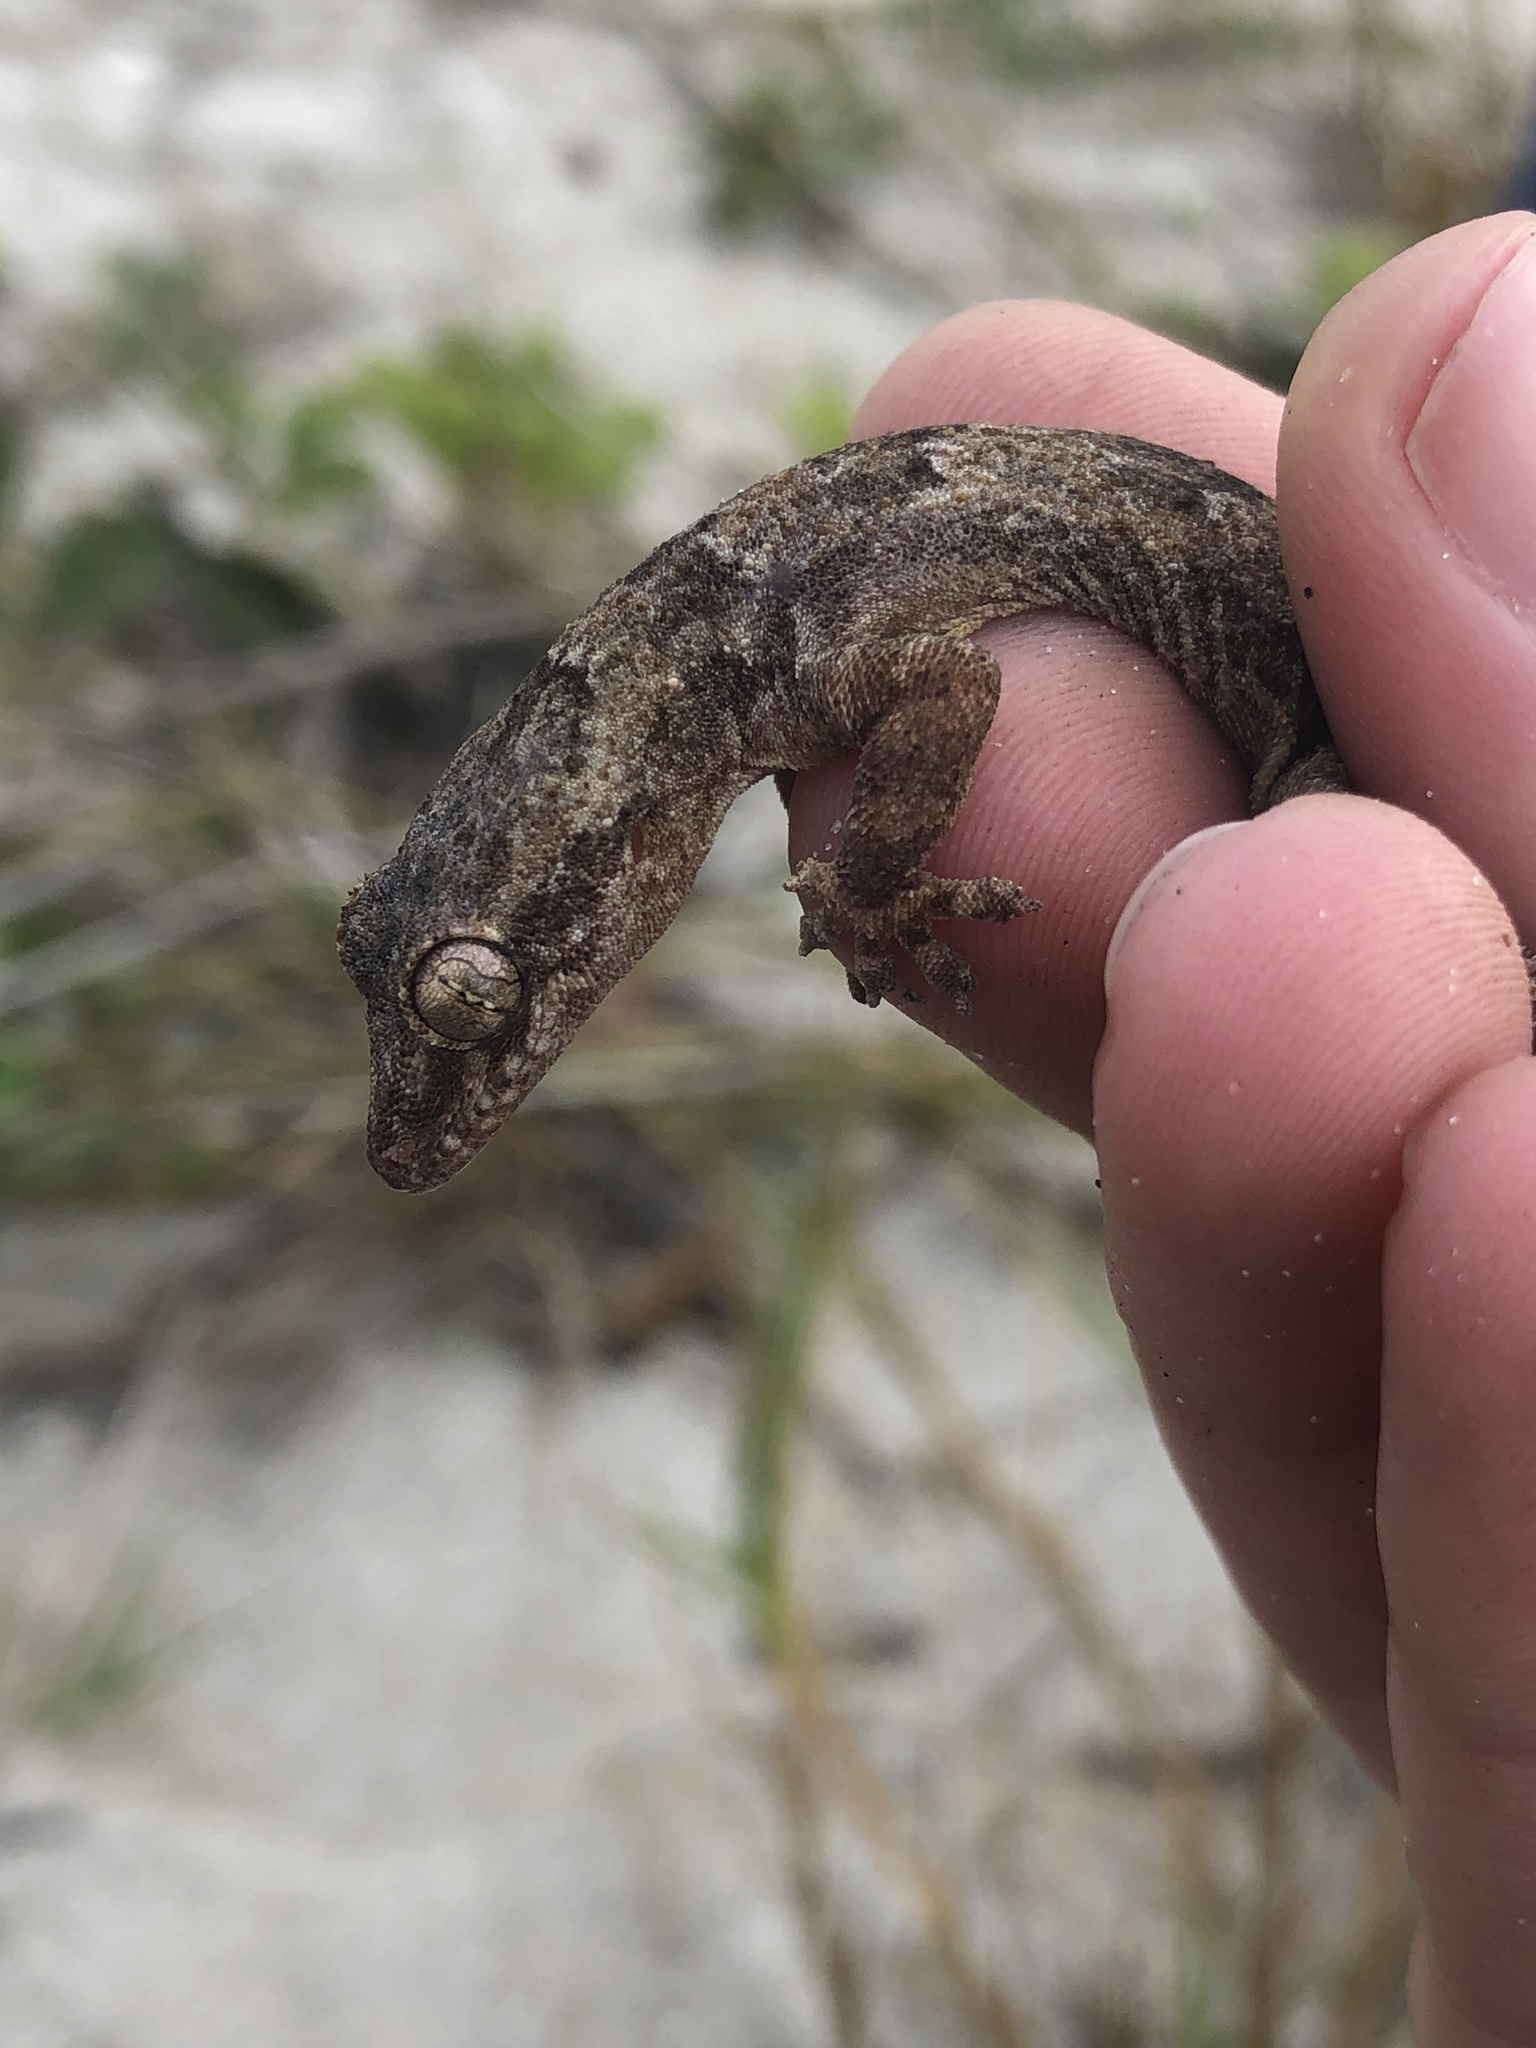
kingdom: Animalia
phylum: Chordata
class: Squamata
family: Gekkonidae
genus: Hemidactylus
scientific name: Hemidactylus mabouia
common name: House gecko
